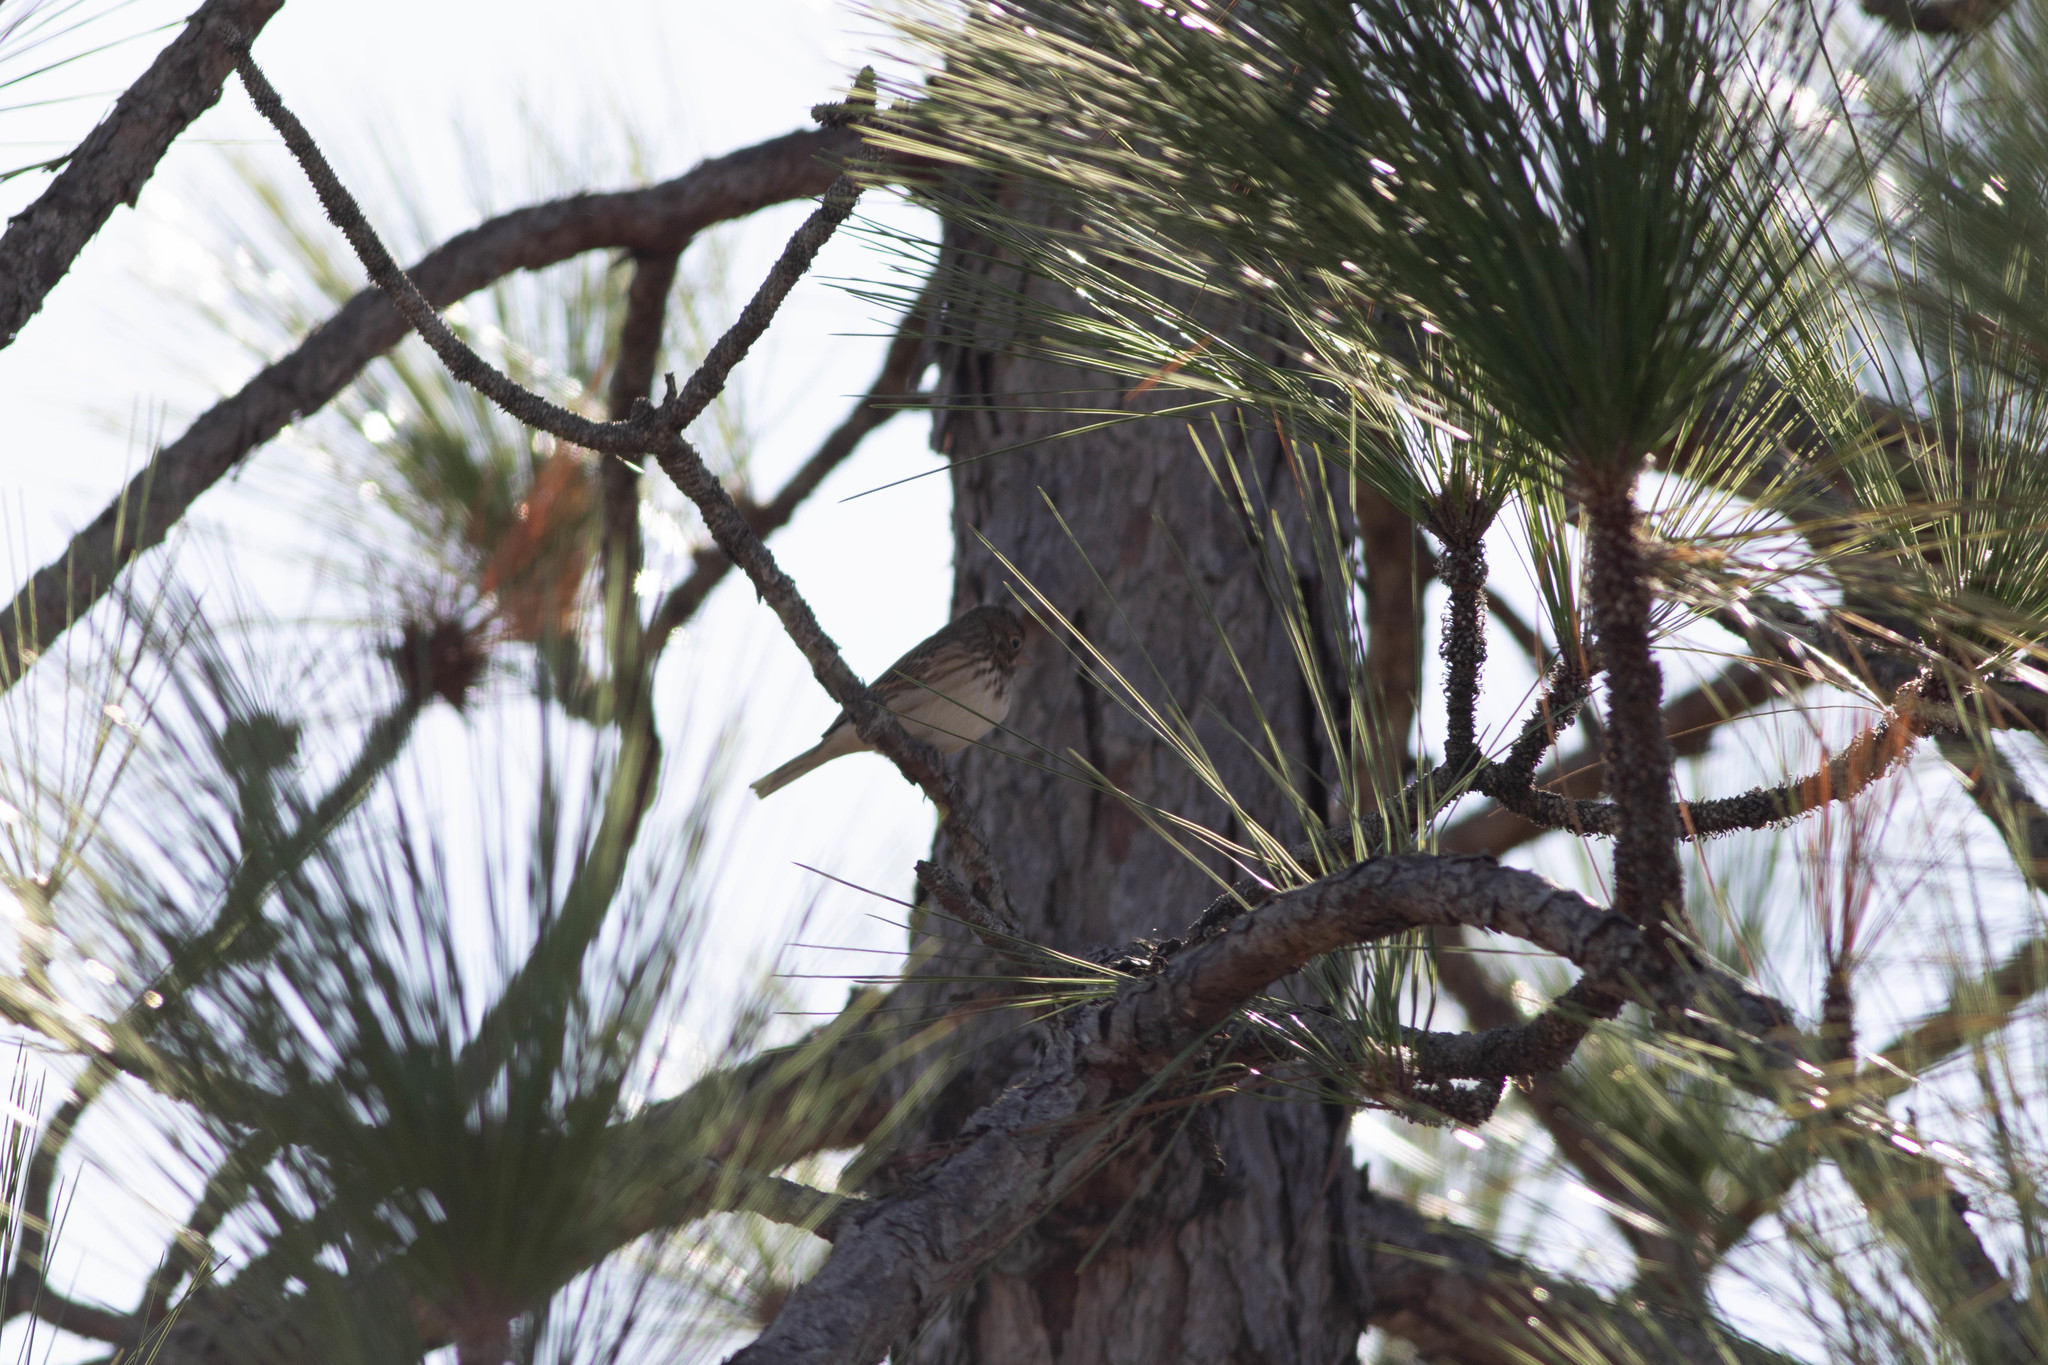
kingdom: Animalia
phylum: Chordata
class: Aves
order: Passeriformes
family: Passerellidae
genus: Pooecetes
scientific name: Pooecetes gramineus
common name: Vesper sparrow
